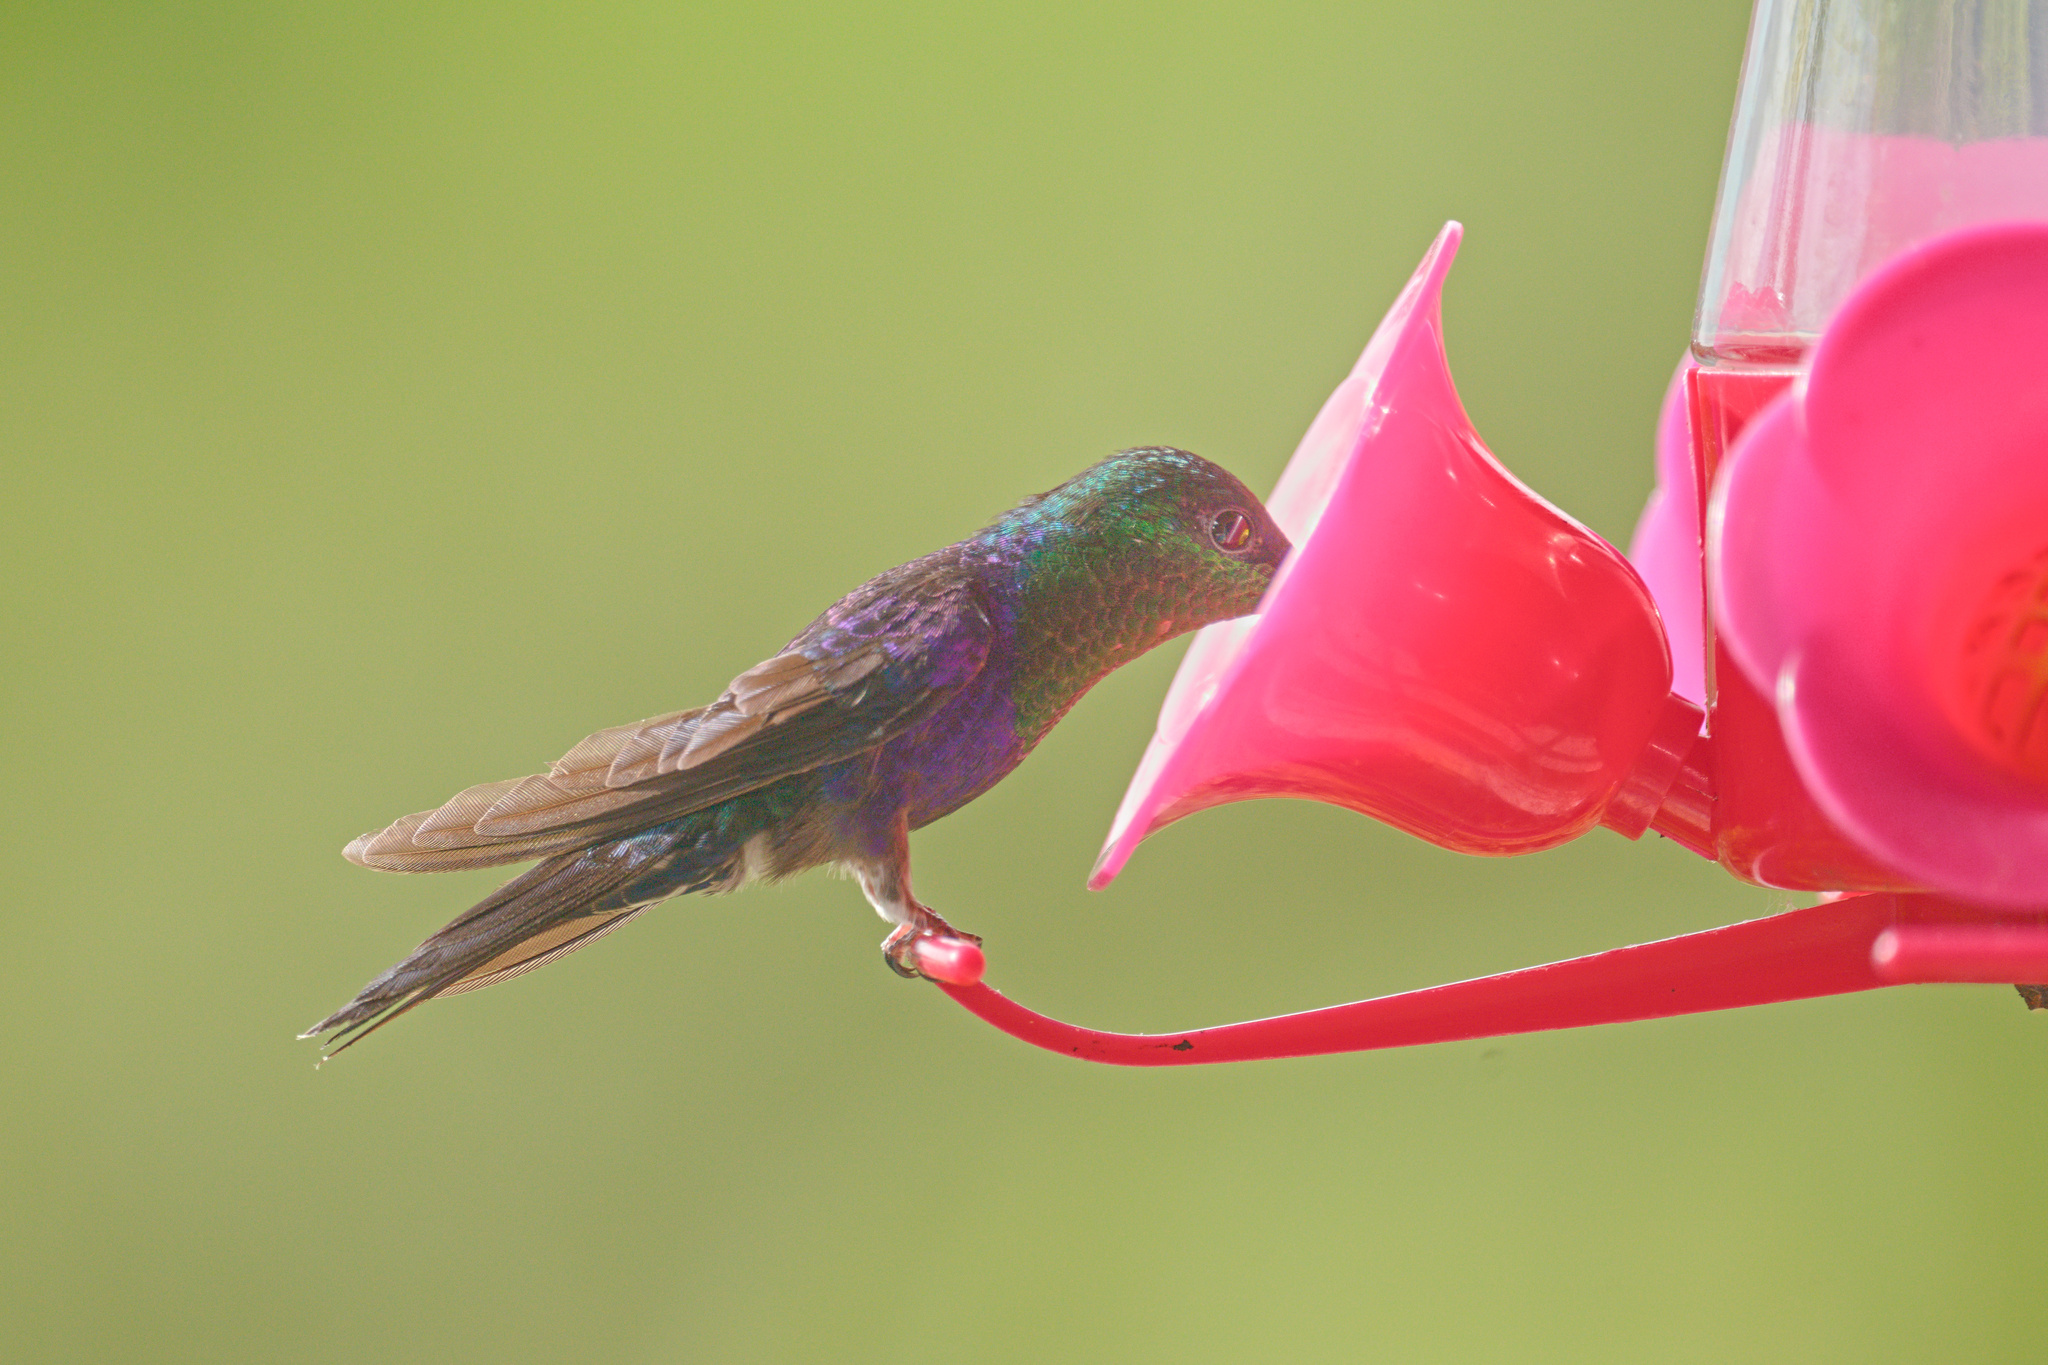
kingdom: Animalia
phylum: Chordata
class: Aves
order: Apodiformes
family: Trochilidae
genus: Thalurania
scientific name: Thalurania colombica
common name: Crowned woodnymph
